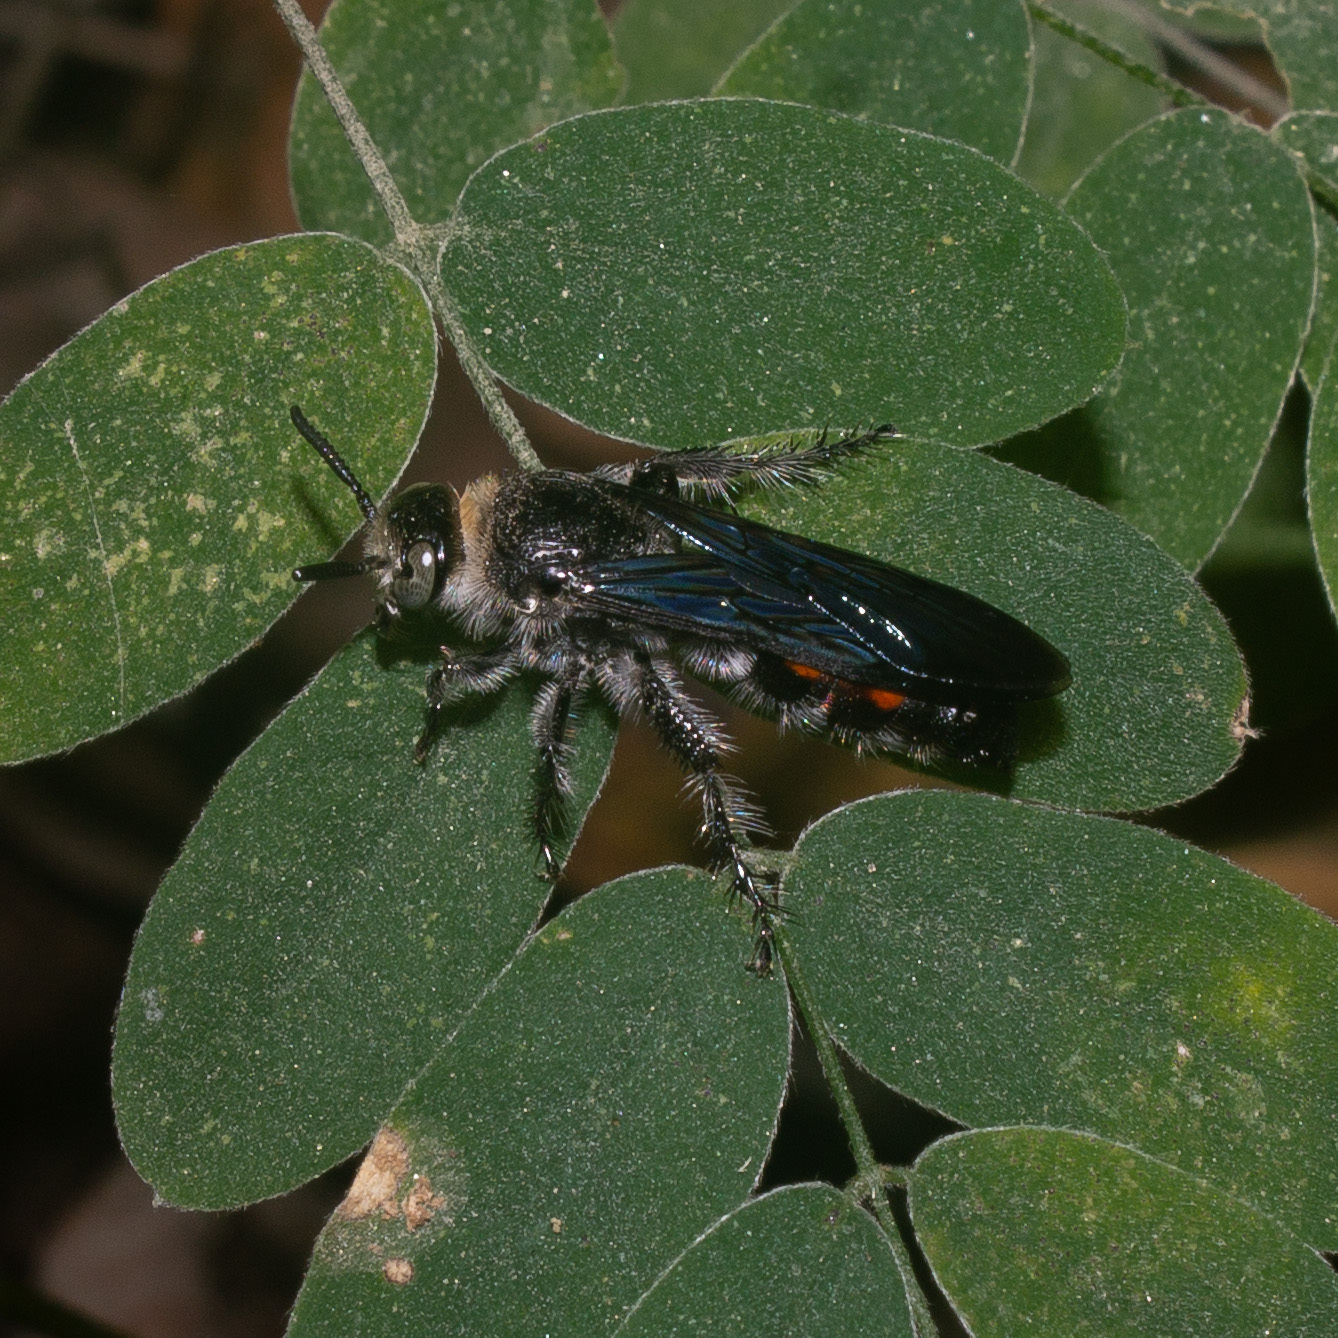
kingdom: Animalia
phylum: Arthropoda
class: Insecta
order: Hymenoptera
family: Scoliidae
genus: Dielis
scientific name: Dielis dorsata
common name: Scoliid wasp
